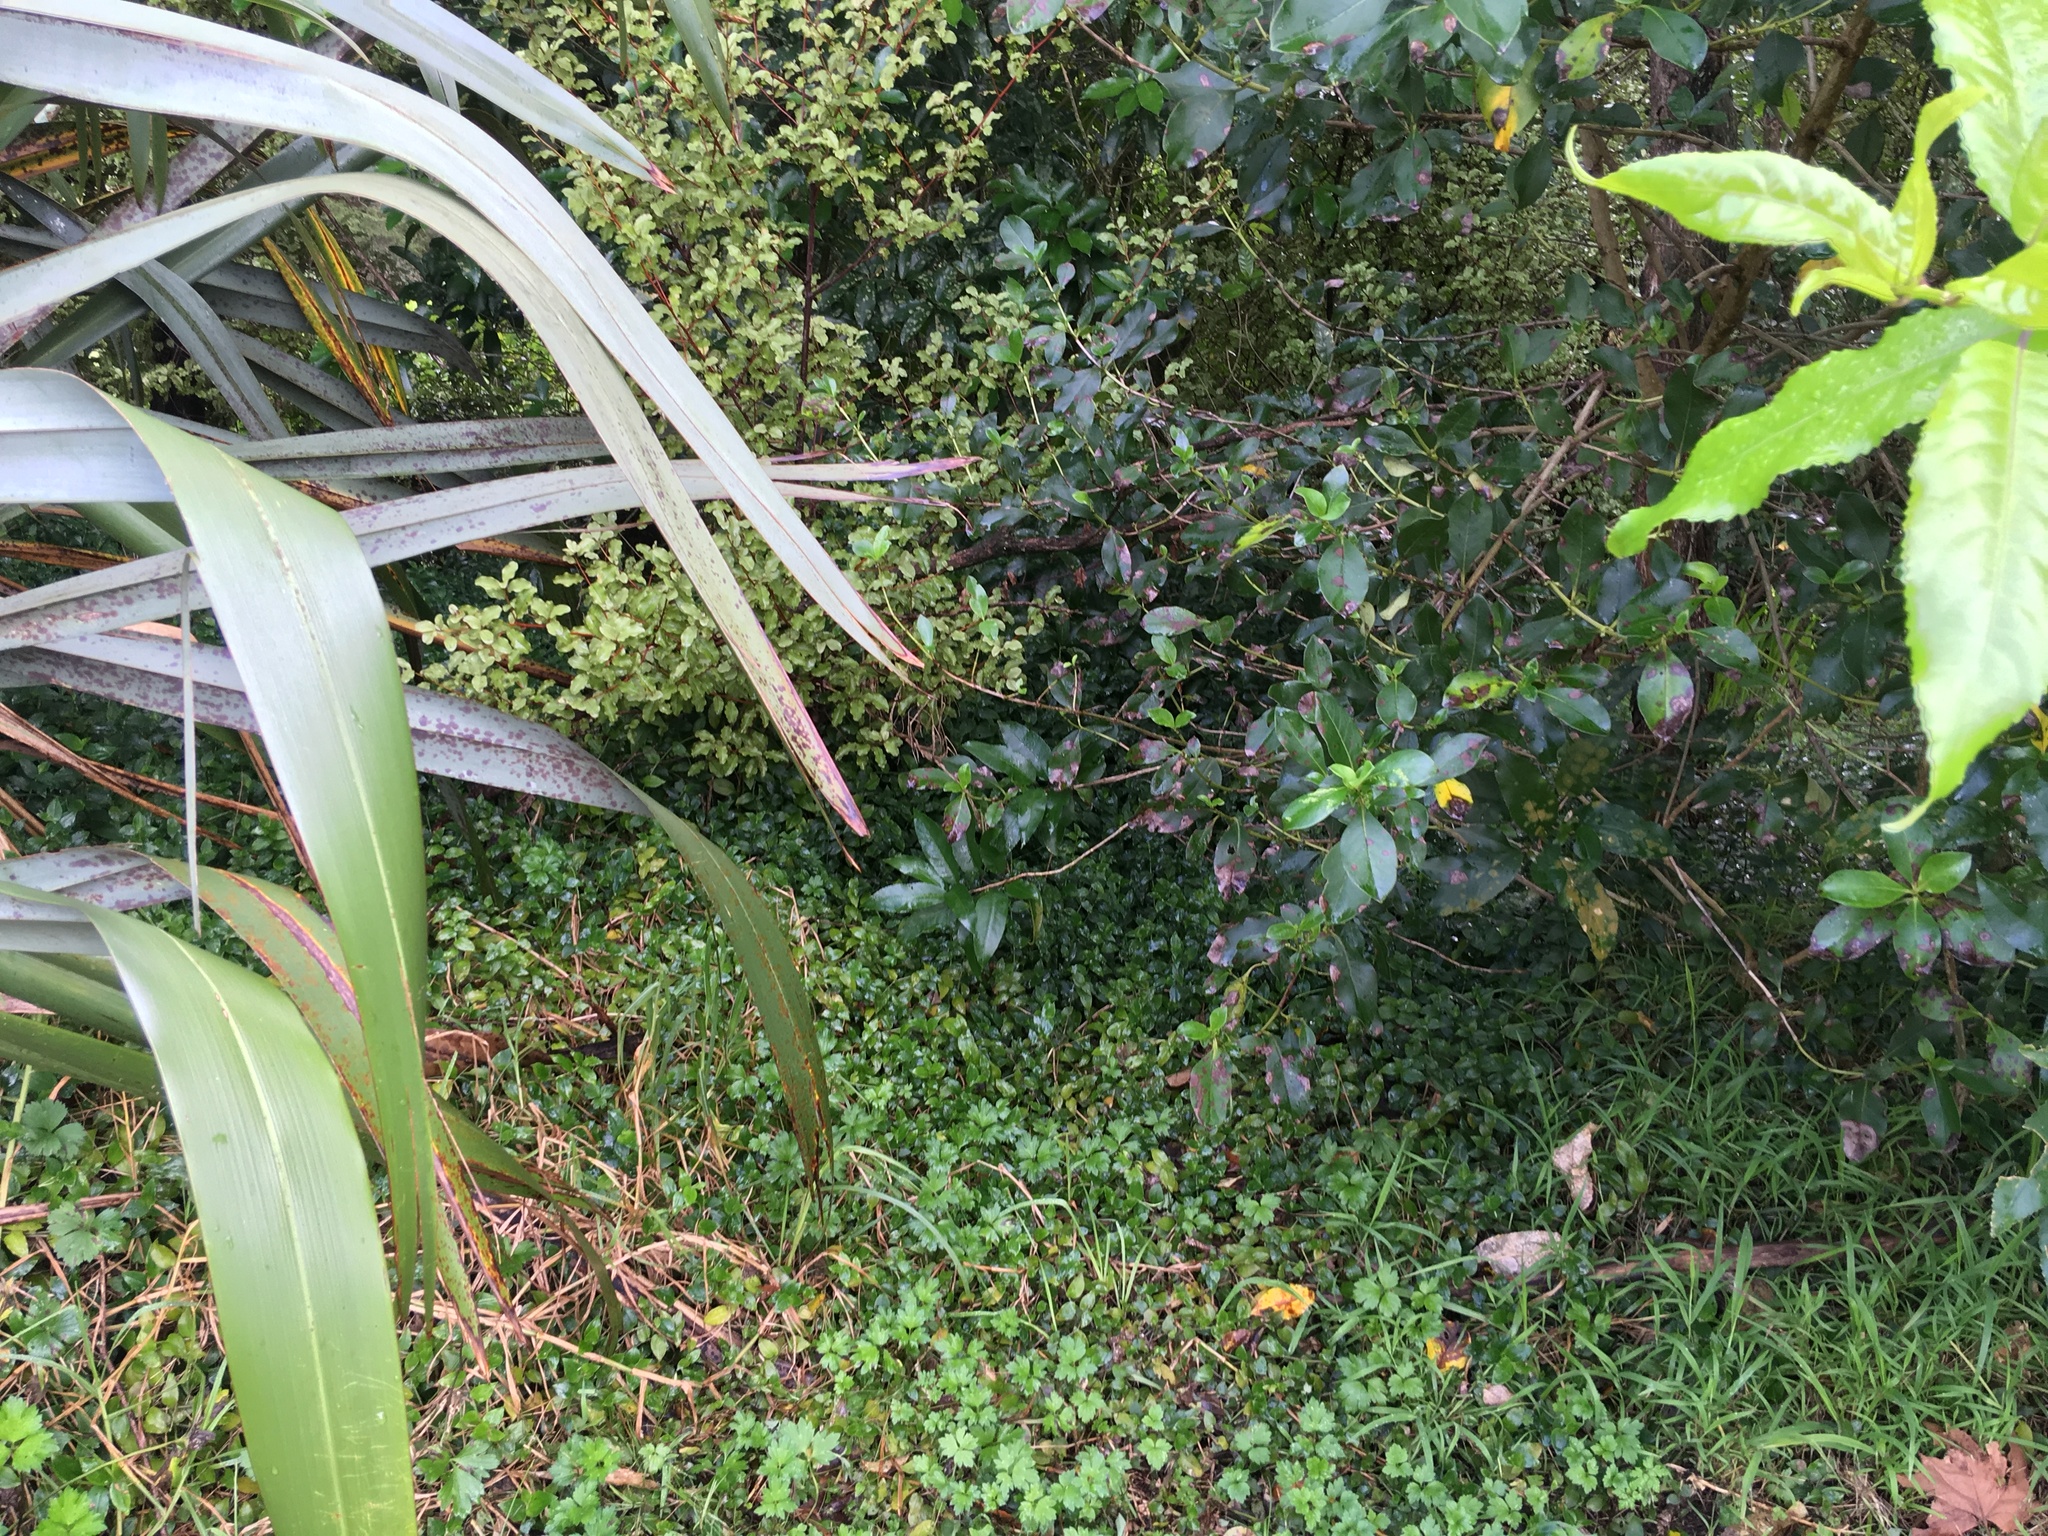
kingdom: Plantae
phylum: Tracheophyta
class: Magnoliopsida
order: Gentianales
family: Rubiaceae
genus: Coprosma
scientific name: Coprosma robusta
